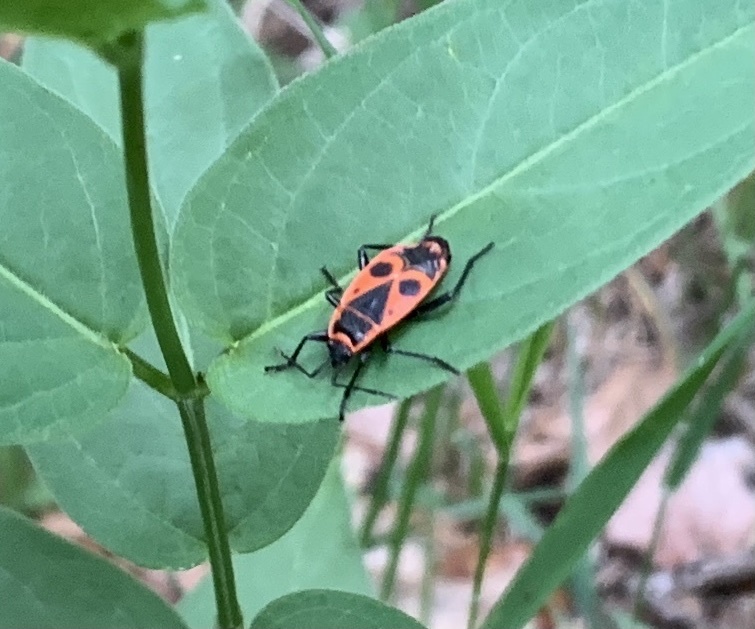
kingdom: Animalia
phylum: Arthropoda
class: Insecta
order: Hemiptera
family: Pyrrhocoridae
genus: Pyrrhocoris
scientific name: Pyrrhocoris apterus
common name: Firebug
